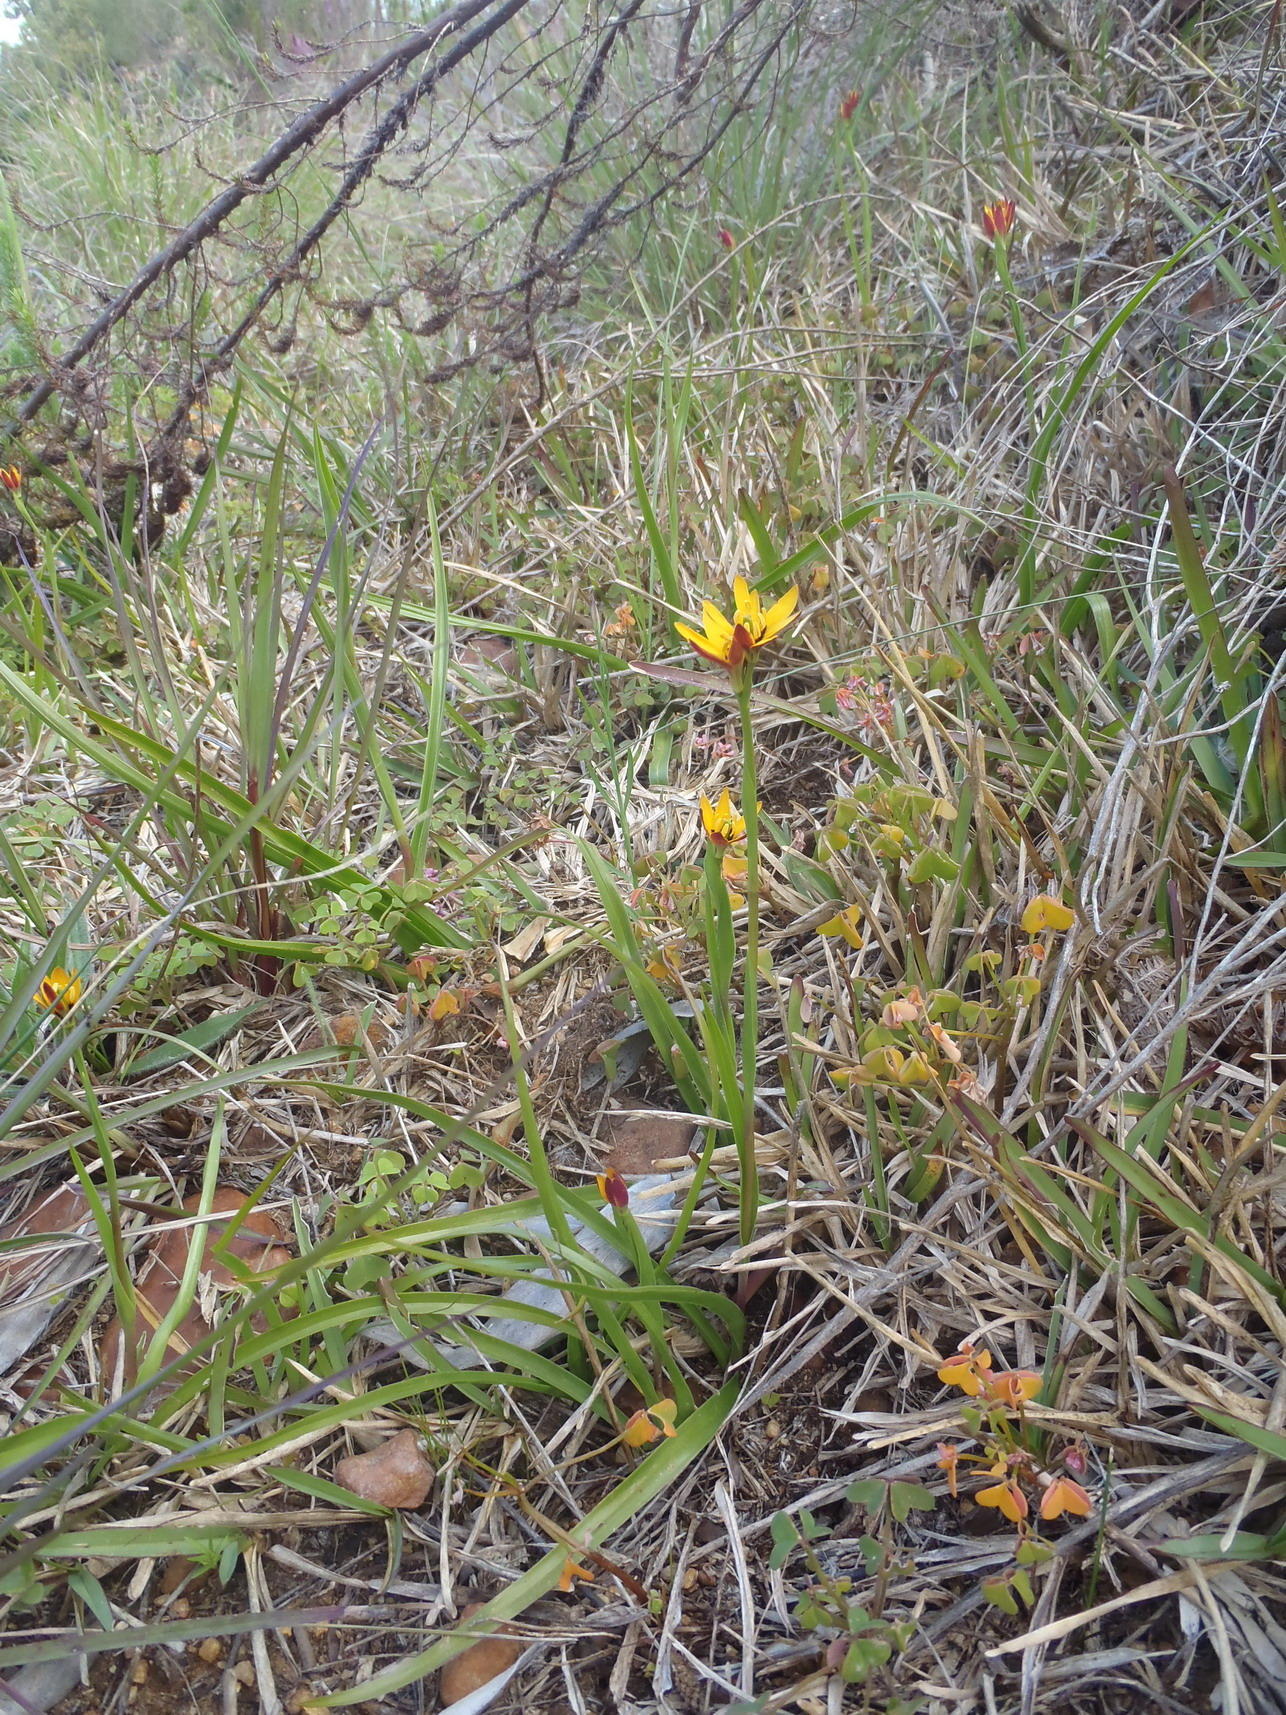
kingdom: Plantae
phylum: Tracheophyta
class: Liliopsida
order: Liliales
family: Colchicaceae
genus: Baeometra
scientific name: Baeometra uniflora
